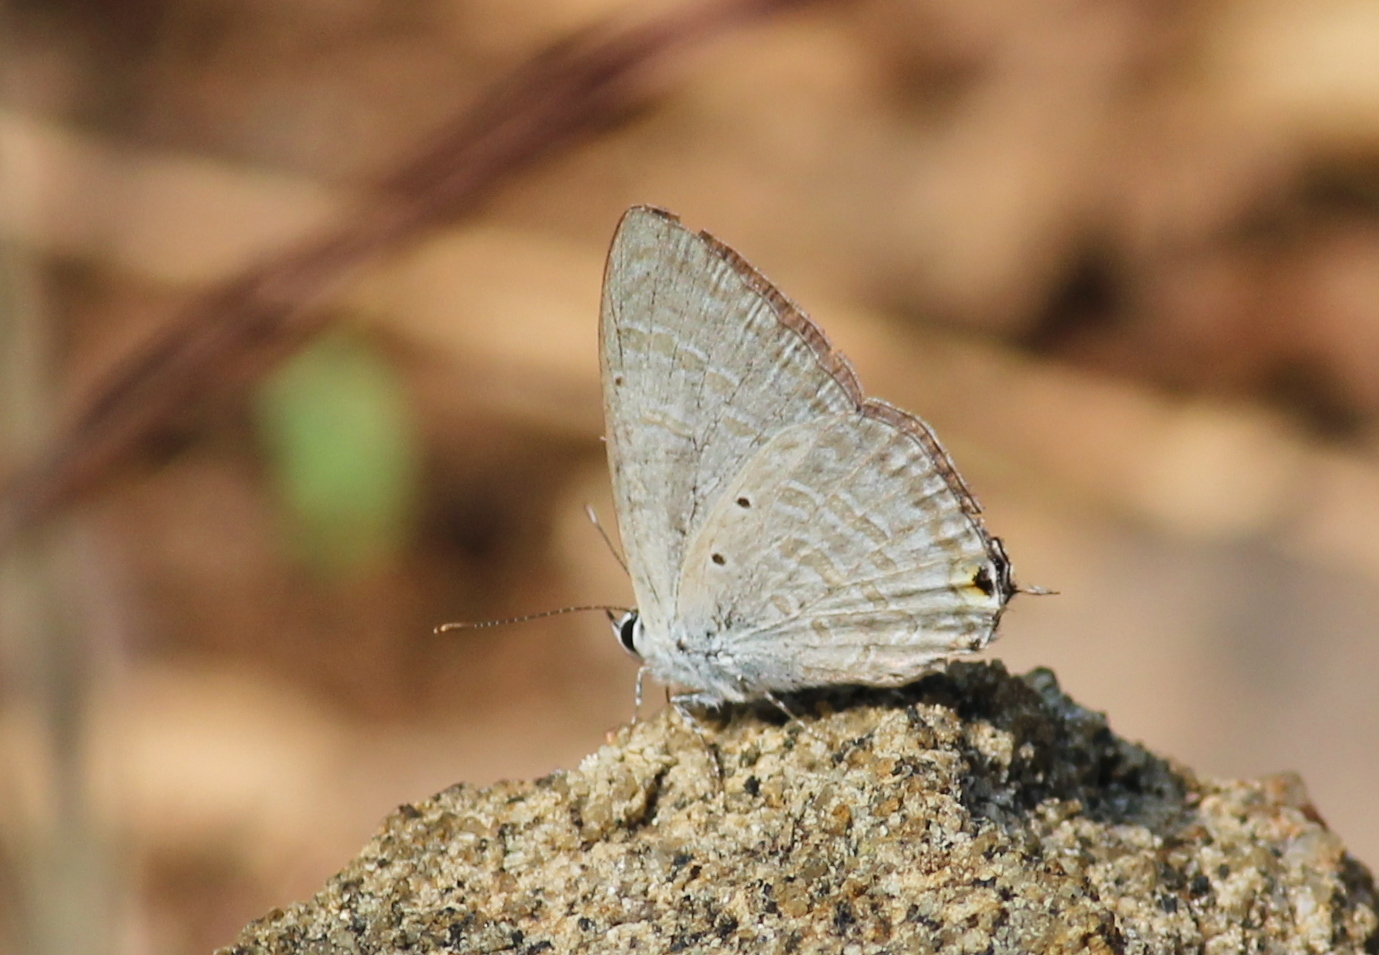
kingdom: Animalia
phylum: Arthropoda
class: Insecta
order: Lepidoptera
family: Lycaenidae
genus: Catochrysops
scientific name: Catochrysops strabo
